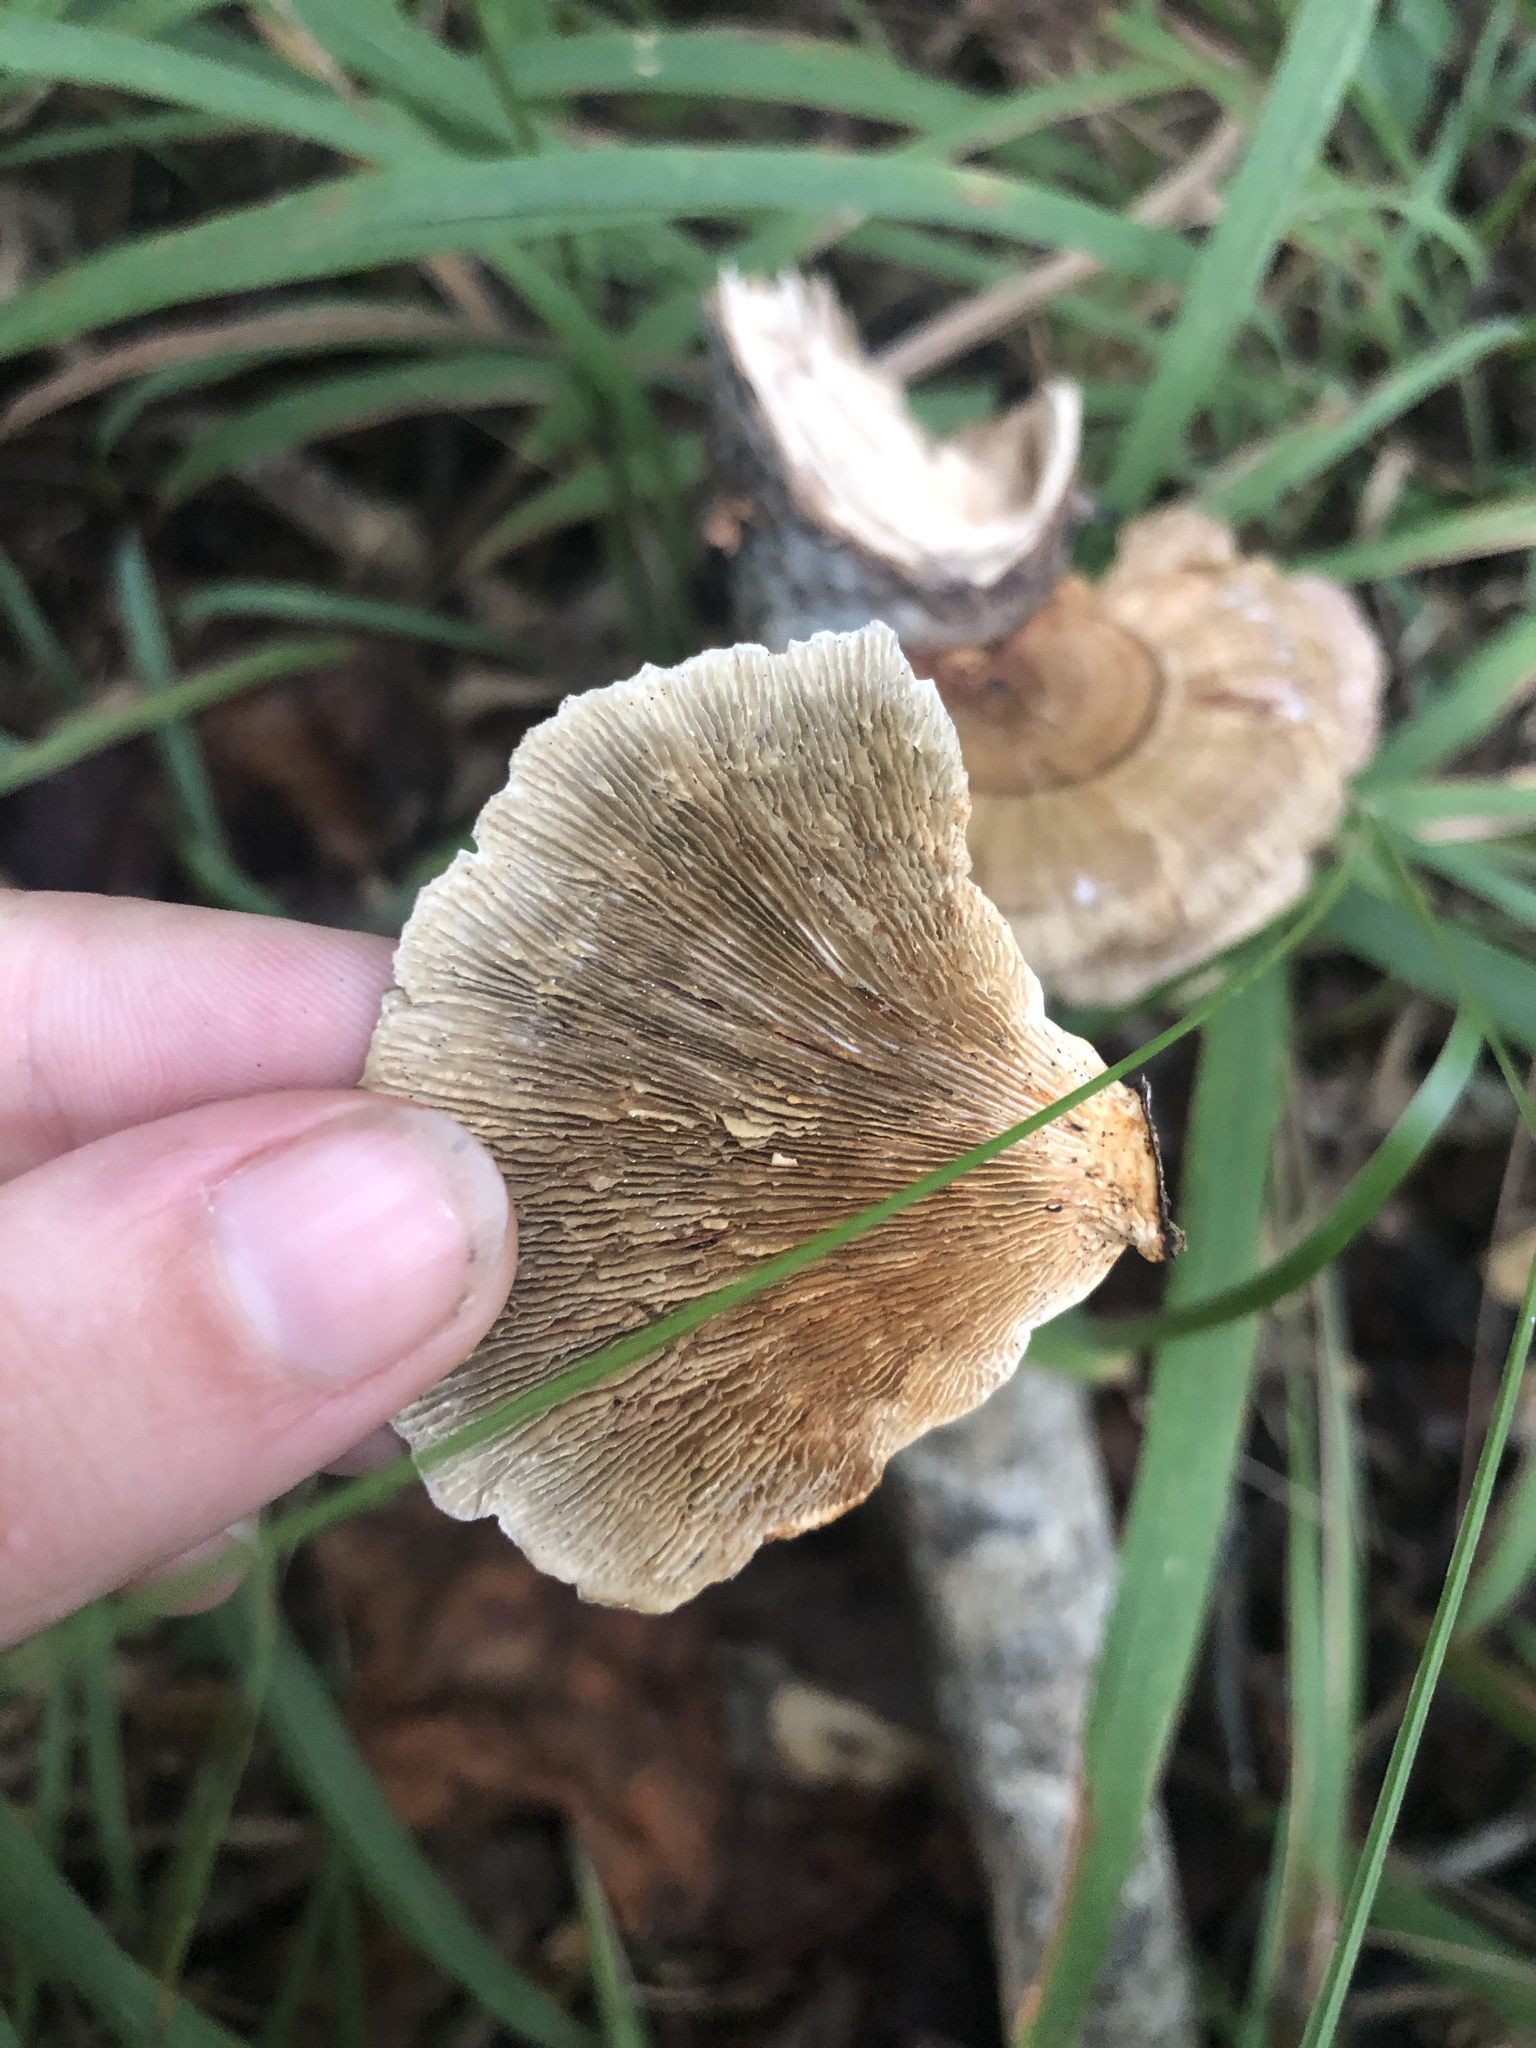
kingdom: Fungi
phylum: Basidiomycota
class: Agaricomycetes
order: Polyporales
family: Polyporaceae
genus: Lenzites
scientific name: Lenzites betulinus
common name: Birch mazegill
